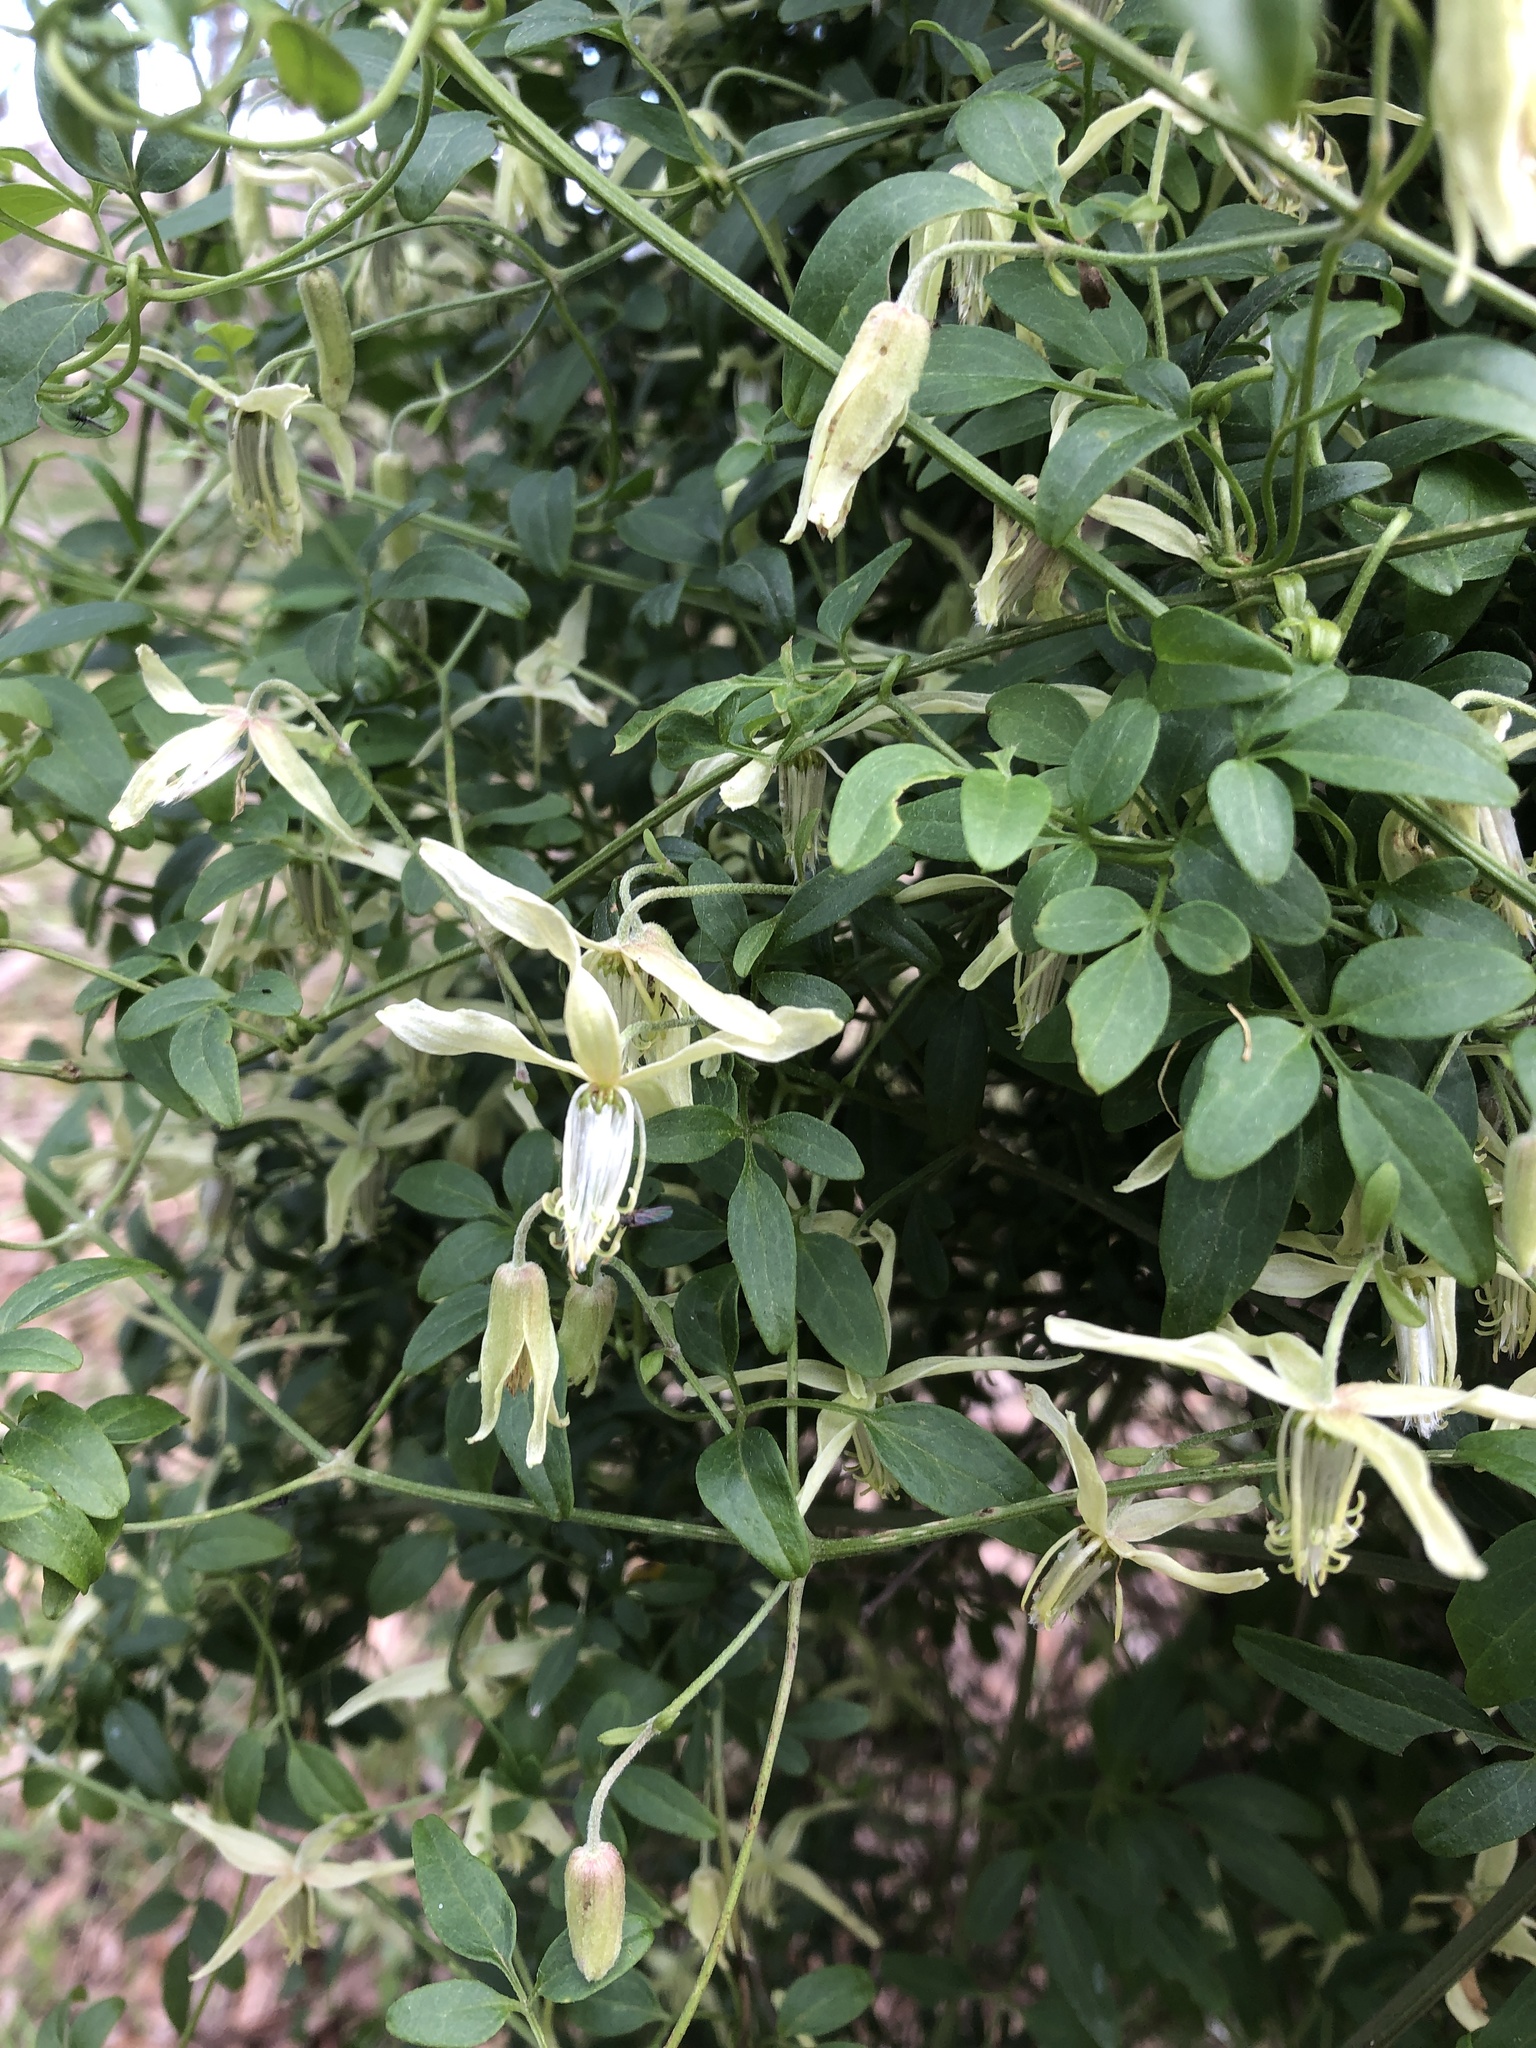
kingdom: Plantae
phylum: Tracheophyta
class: Magnoliopsida
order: Ranunculales
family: Ranunculaceae
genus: Clematis
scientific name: Clematis microphylla
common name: Headachevine
